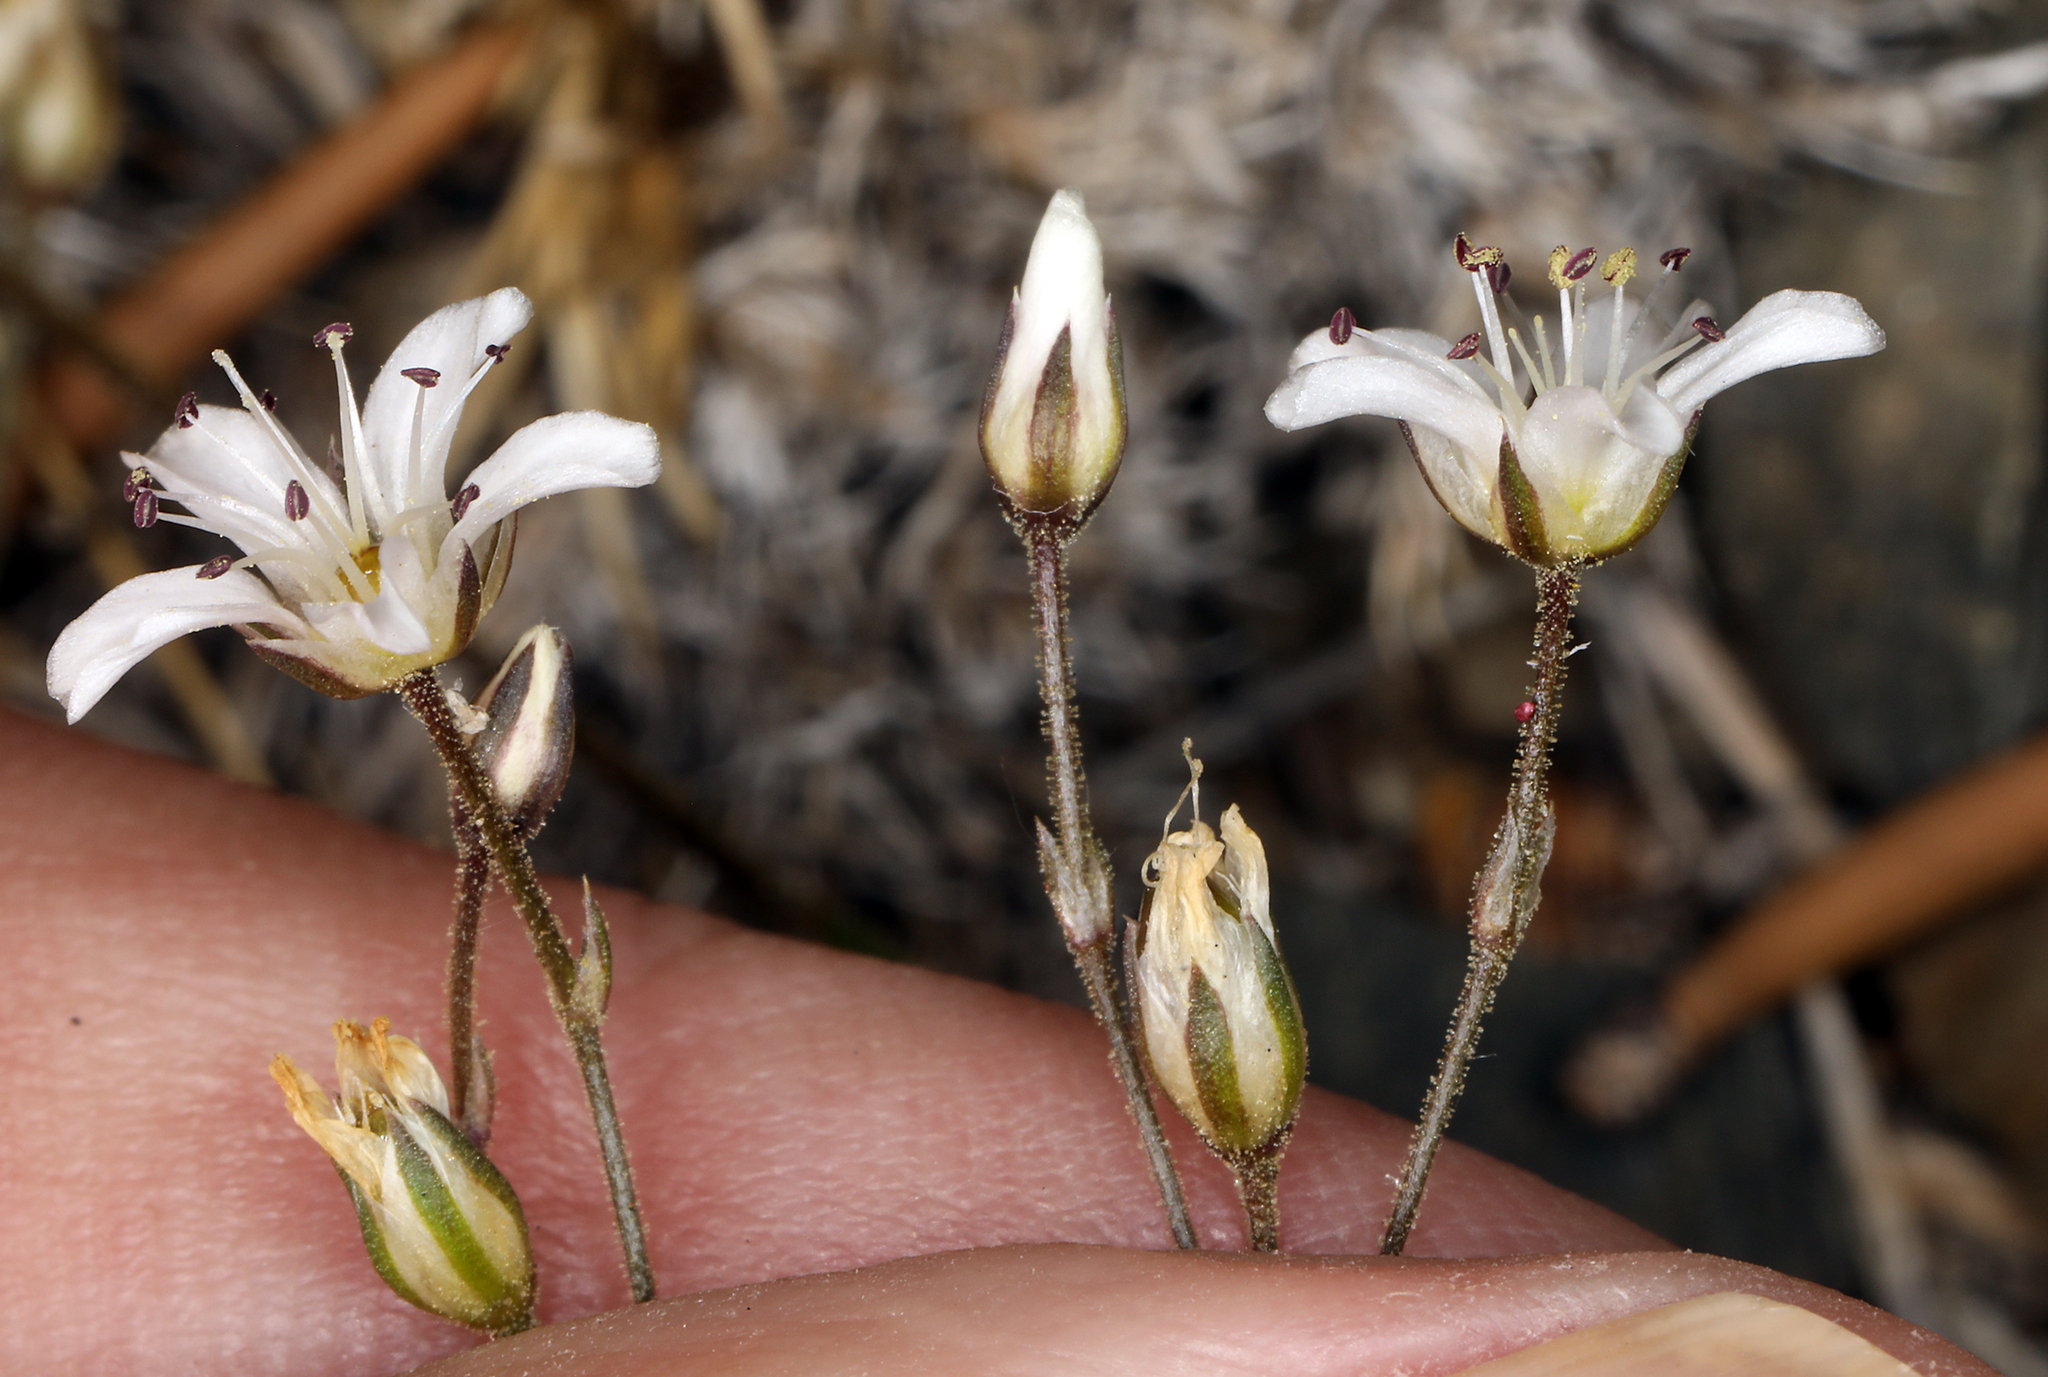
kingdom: Plantae
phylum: Tracheophyta
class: Magnoliopsida
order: Caryophyllales
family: Caryophyllaceae
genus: Eremogone
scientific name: Eremogone kingii
